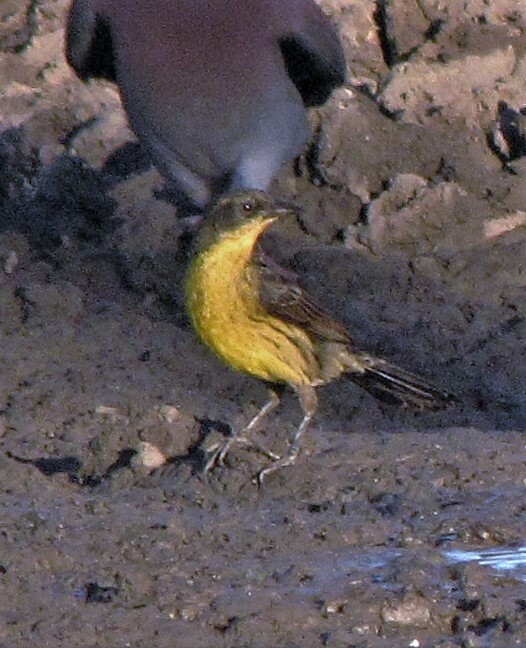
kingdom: Animalia
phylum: Chordata
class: Aves
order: Passeriformes
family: Icteridae
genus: Agelasticus
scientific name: Agelasticus cyanopus
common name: Unicolored blackbird
